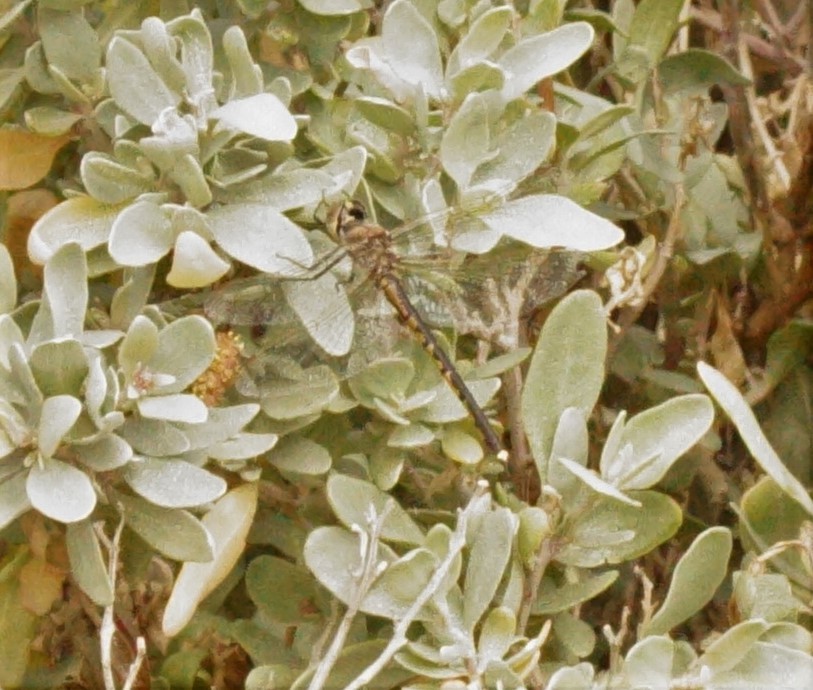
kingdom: Animalia
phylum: Arthropoda
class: Insecta
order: Odonata
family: Corduliidae
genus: Hemicordulia
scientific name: Hemicordulia tau
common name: Tau emerald
